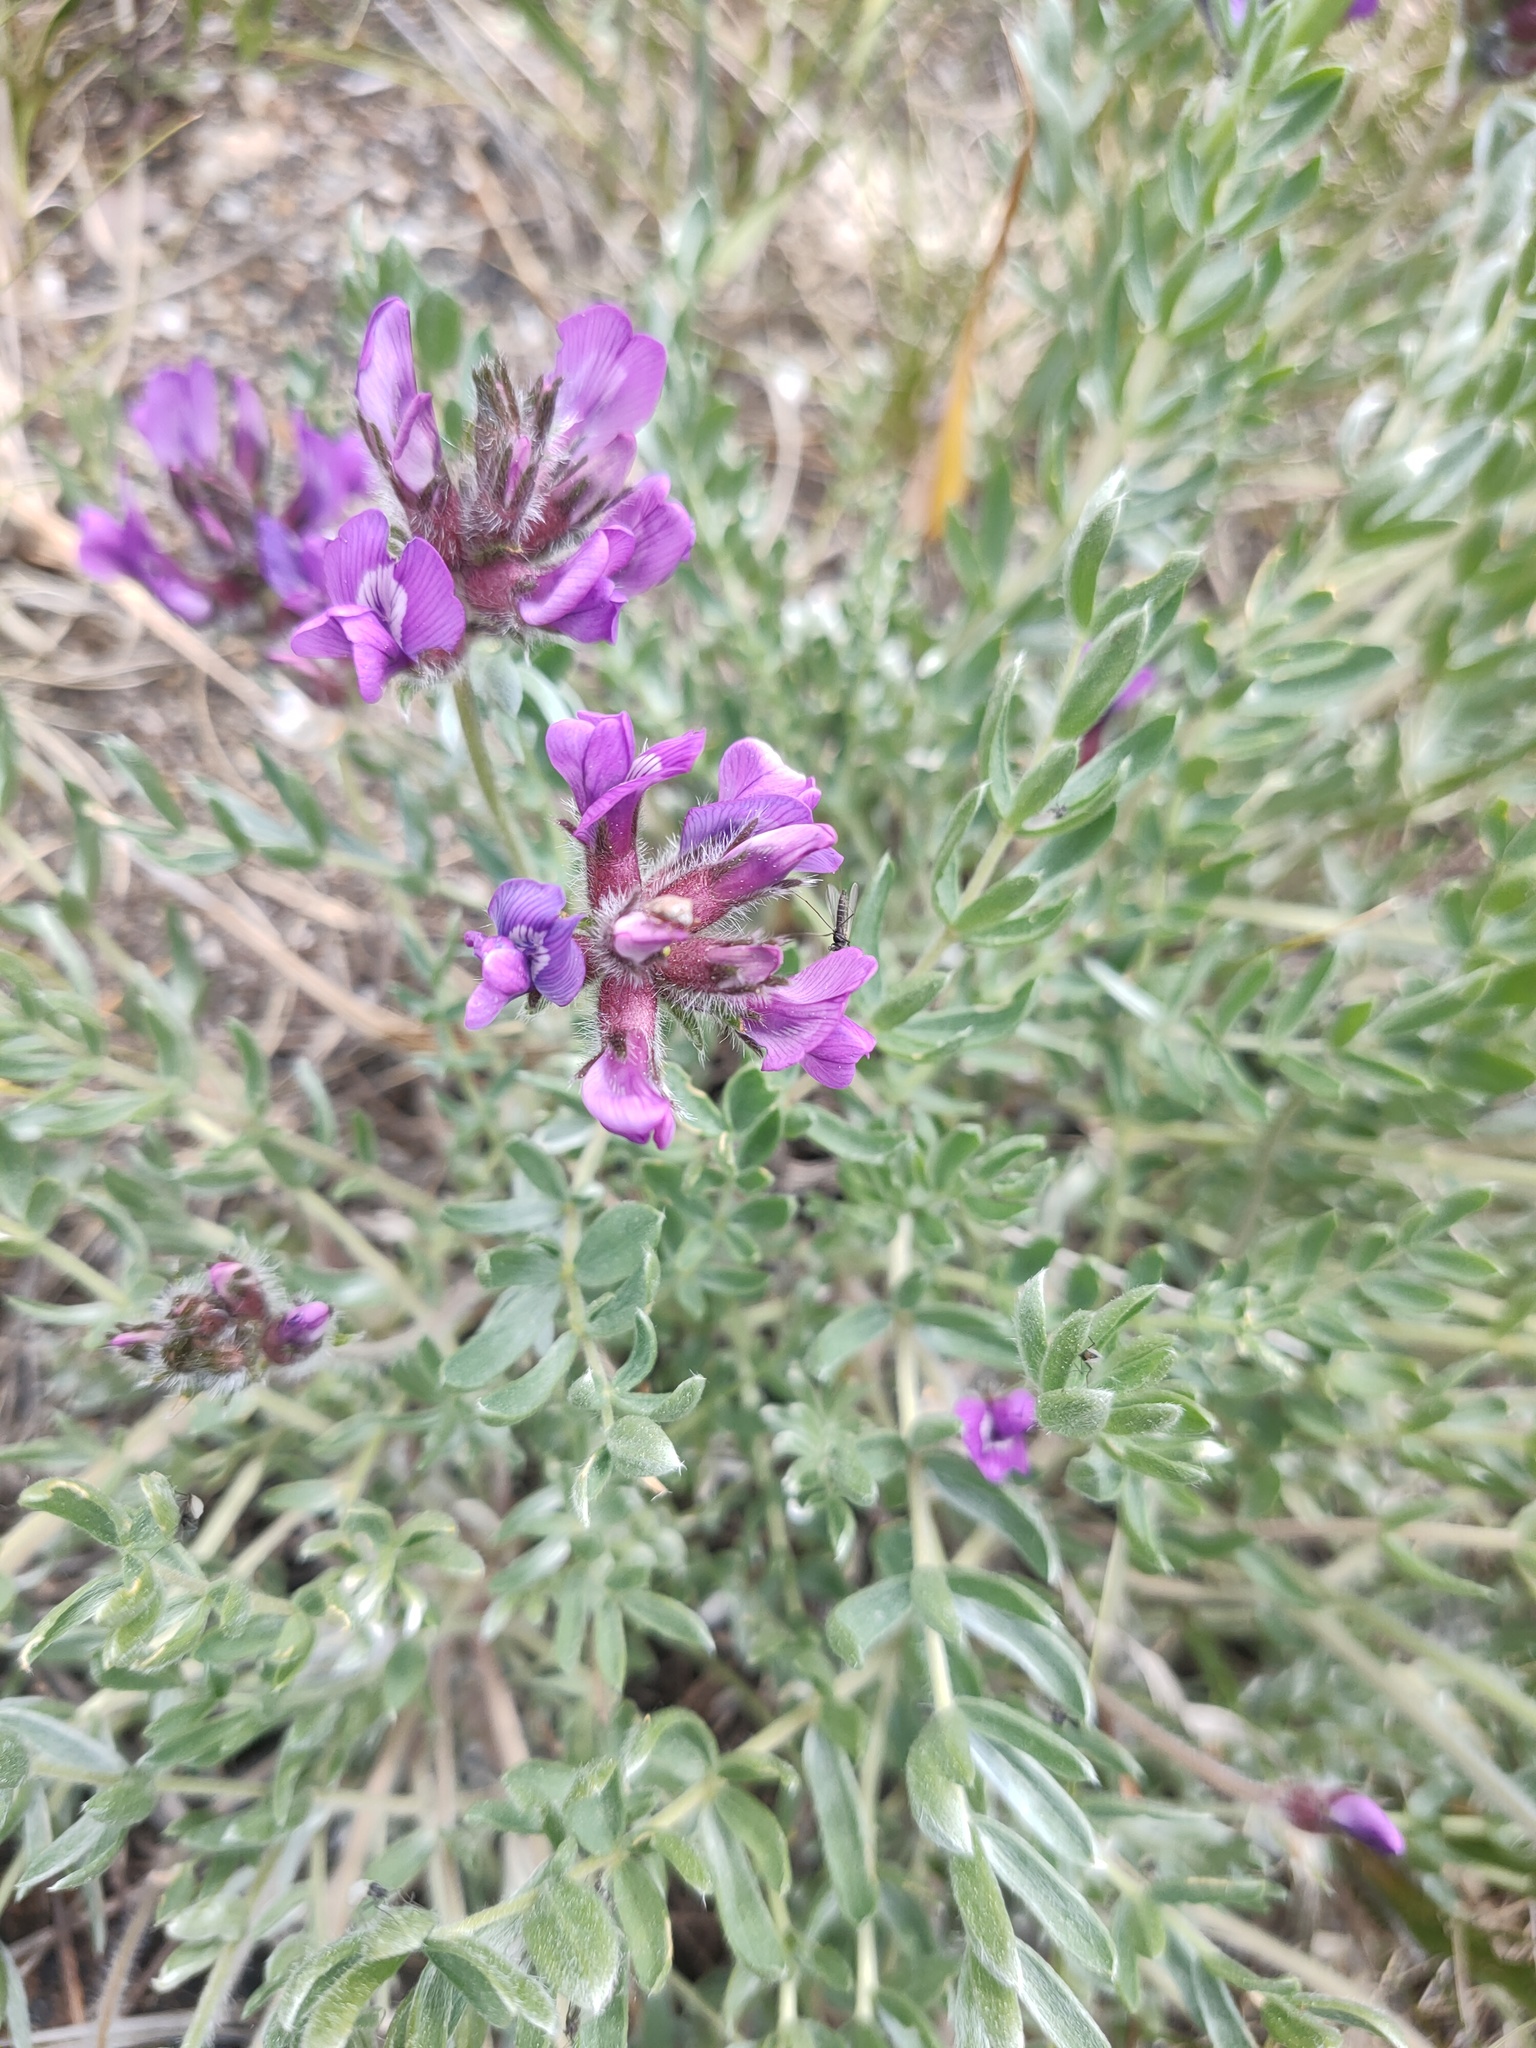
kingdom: Plantae
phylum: Tracheophyta
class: Magnoliopsida
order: Fabales
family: Fabaceae
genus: Oxytropis
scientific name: Oxytropis oxyphylloides
